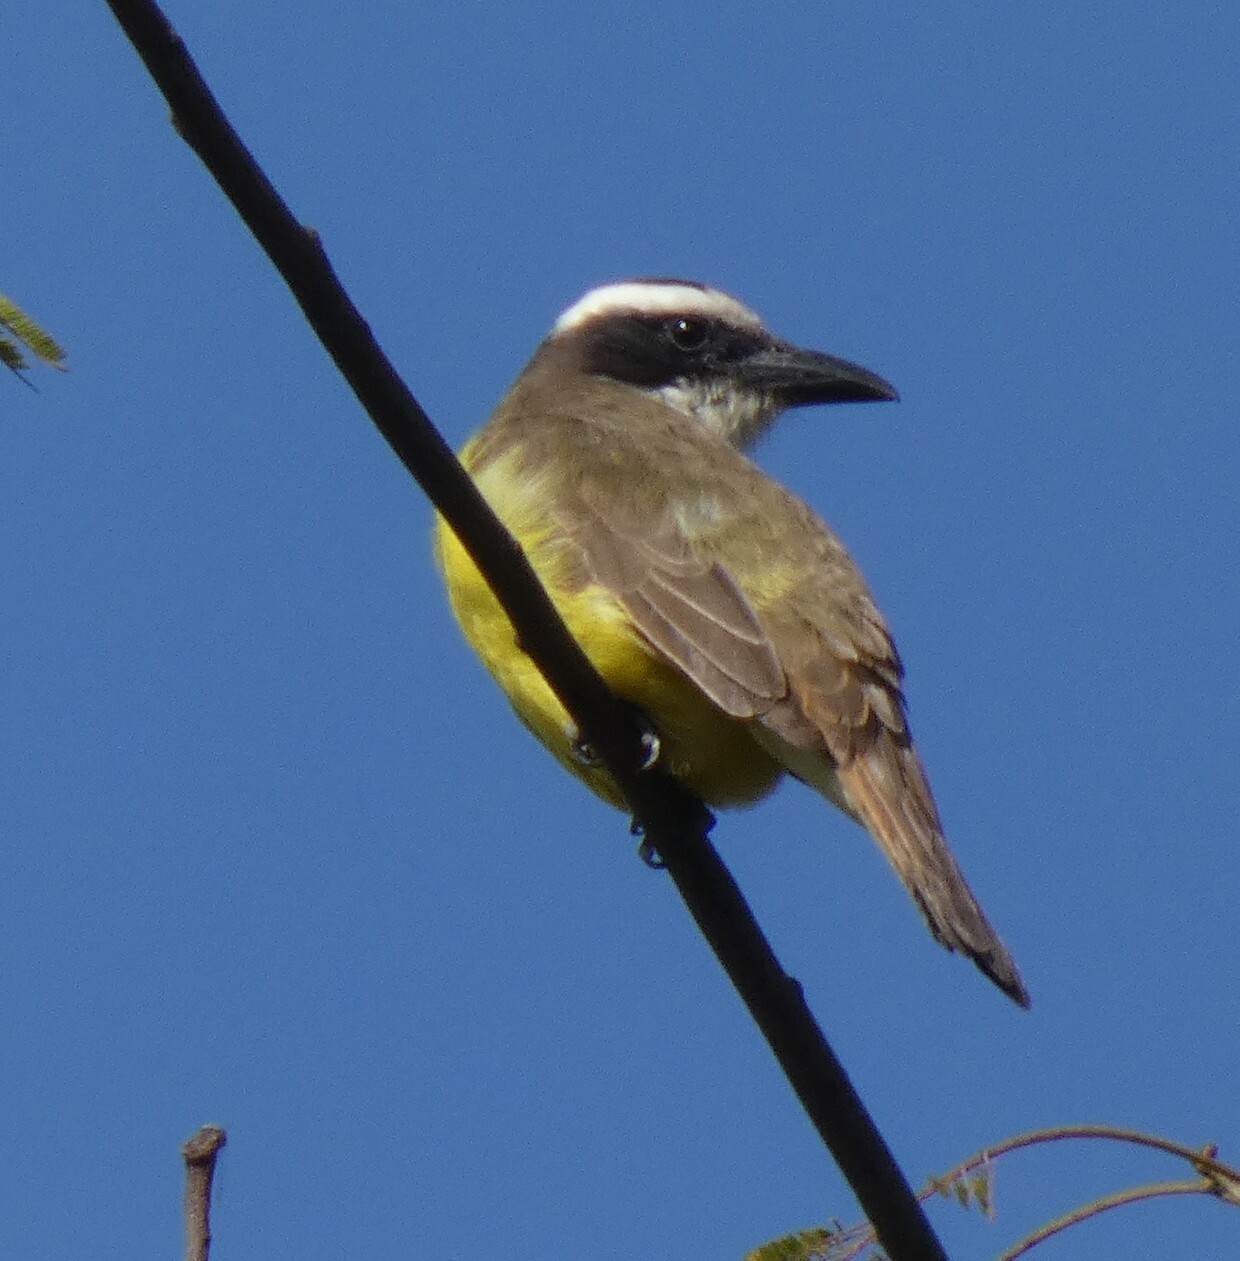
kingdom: Animalia
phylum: Chordata
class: Aves
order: Passeriformes
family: Tyrannidae
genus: Megarynchus
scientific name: Megarynchus pitangua
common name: Boat-billed flycatcher
